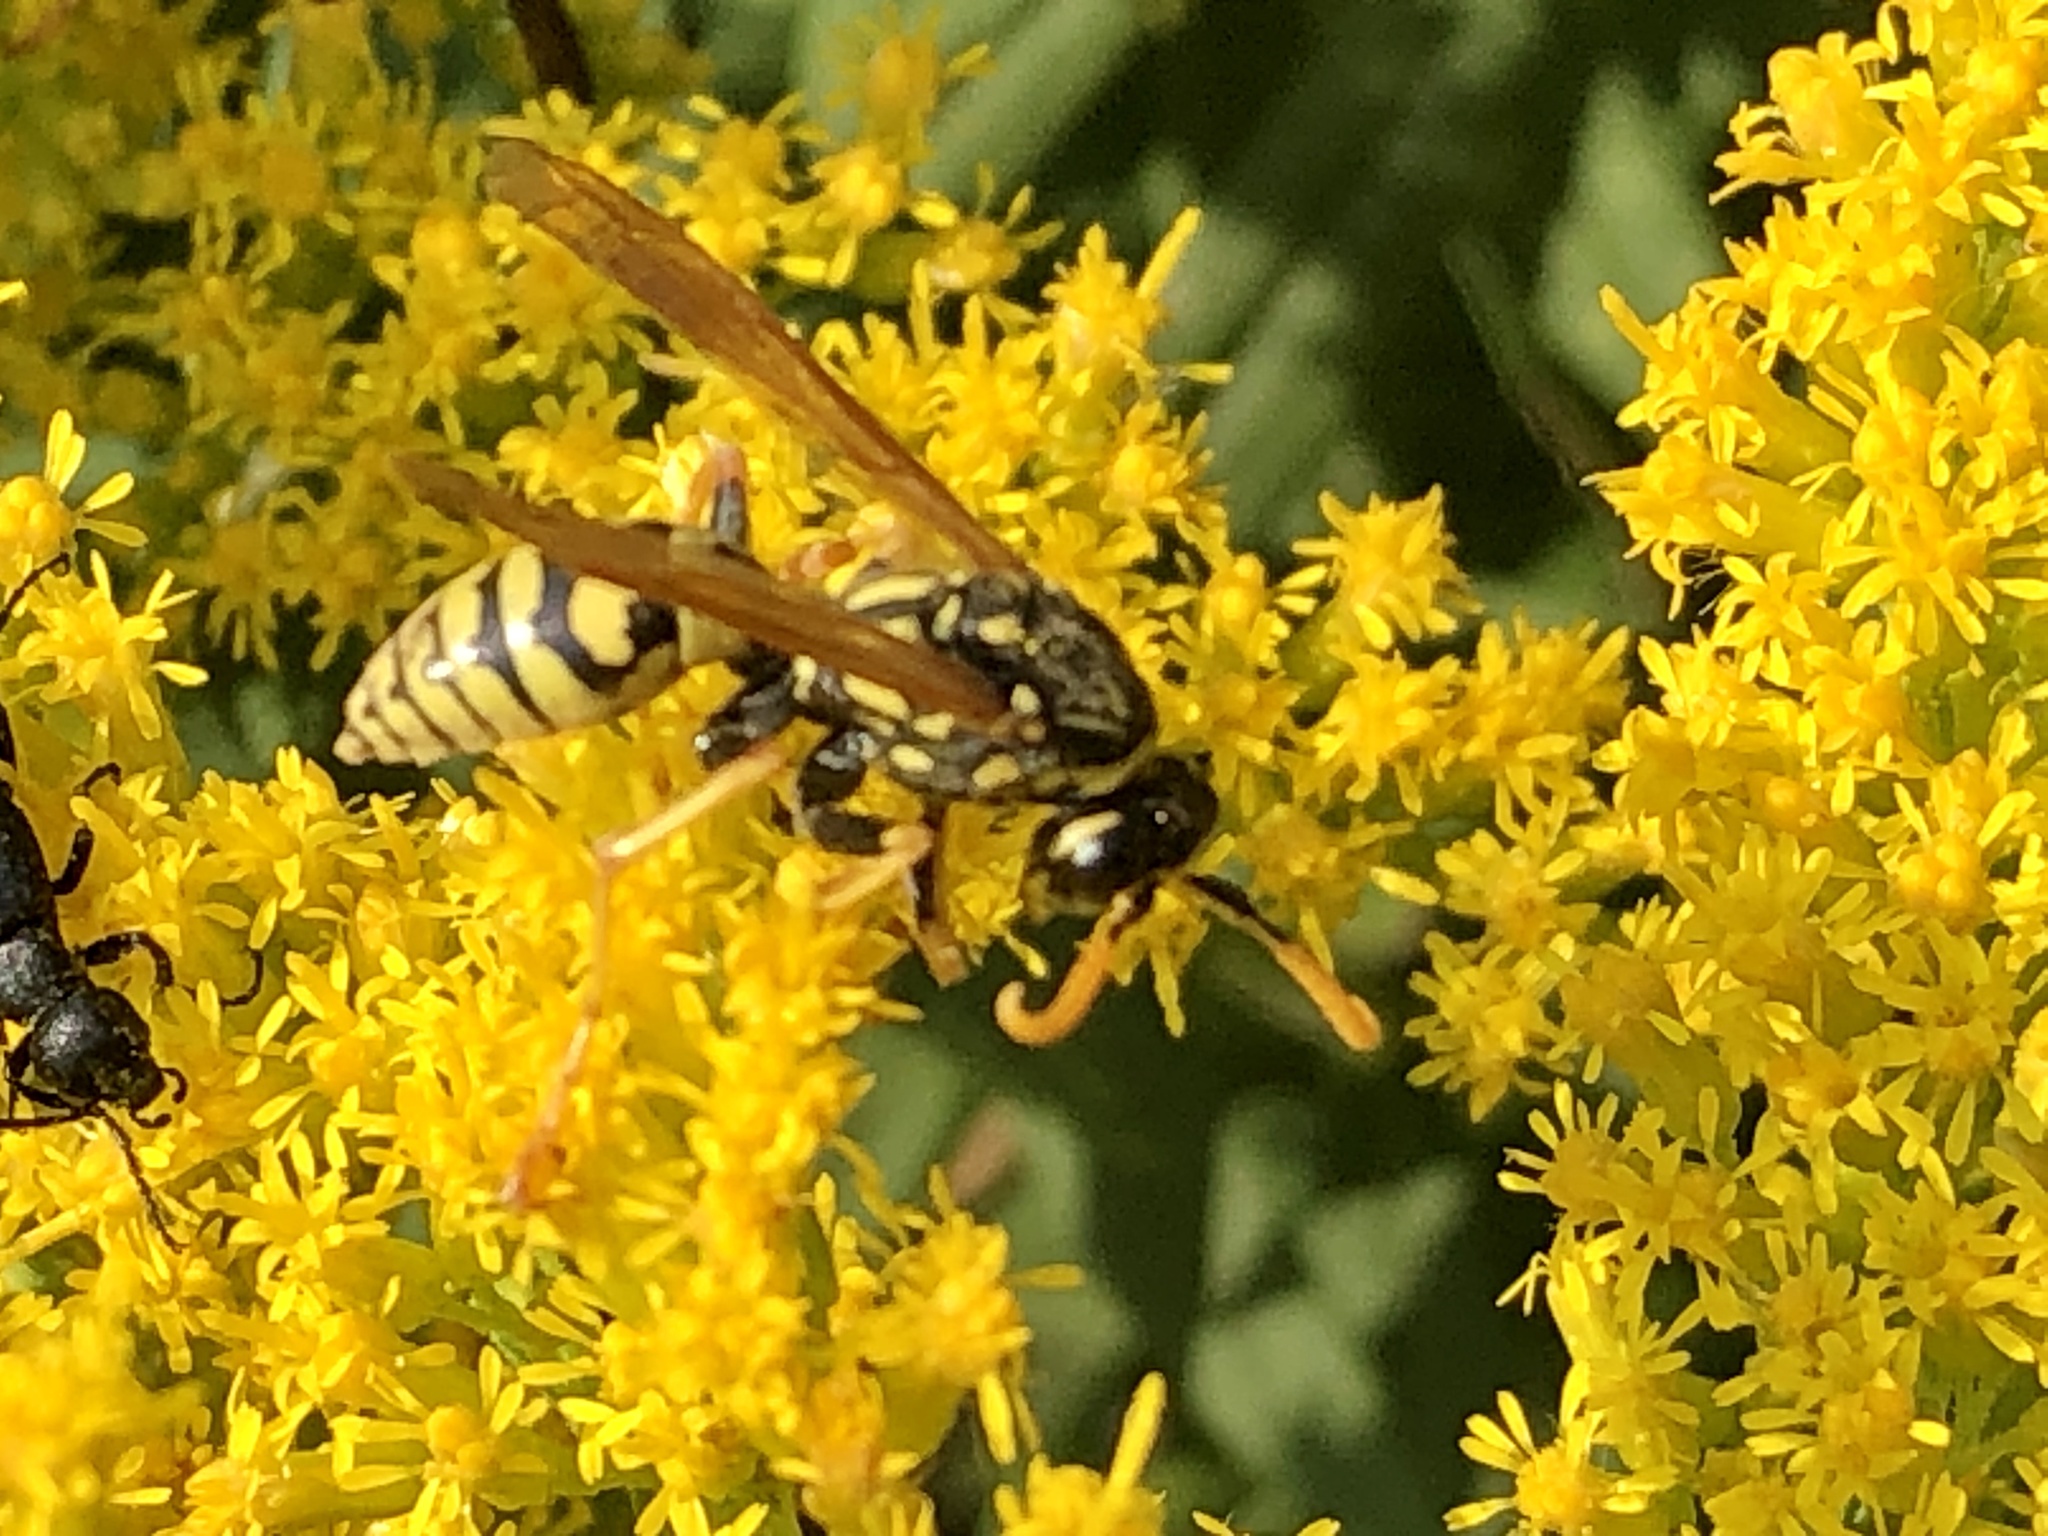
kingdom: Animalia
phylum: Arthropoda
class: Insecta
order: Hymenoptera
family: Eumenidae
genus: Polistes
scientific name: Polistes dominula
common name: Paper wasp
